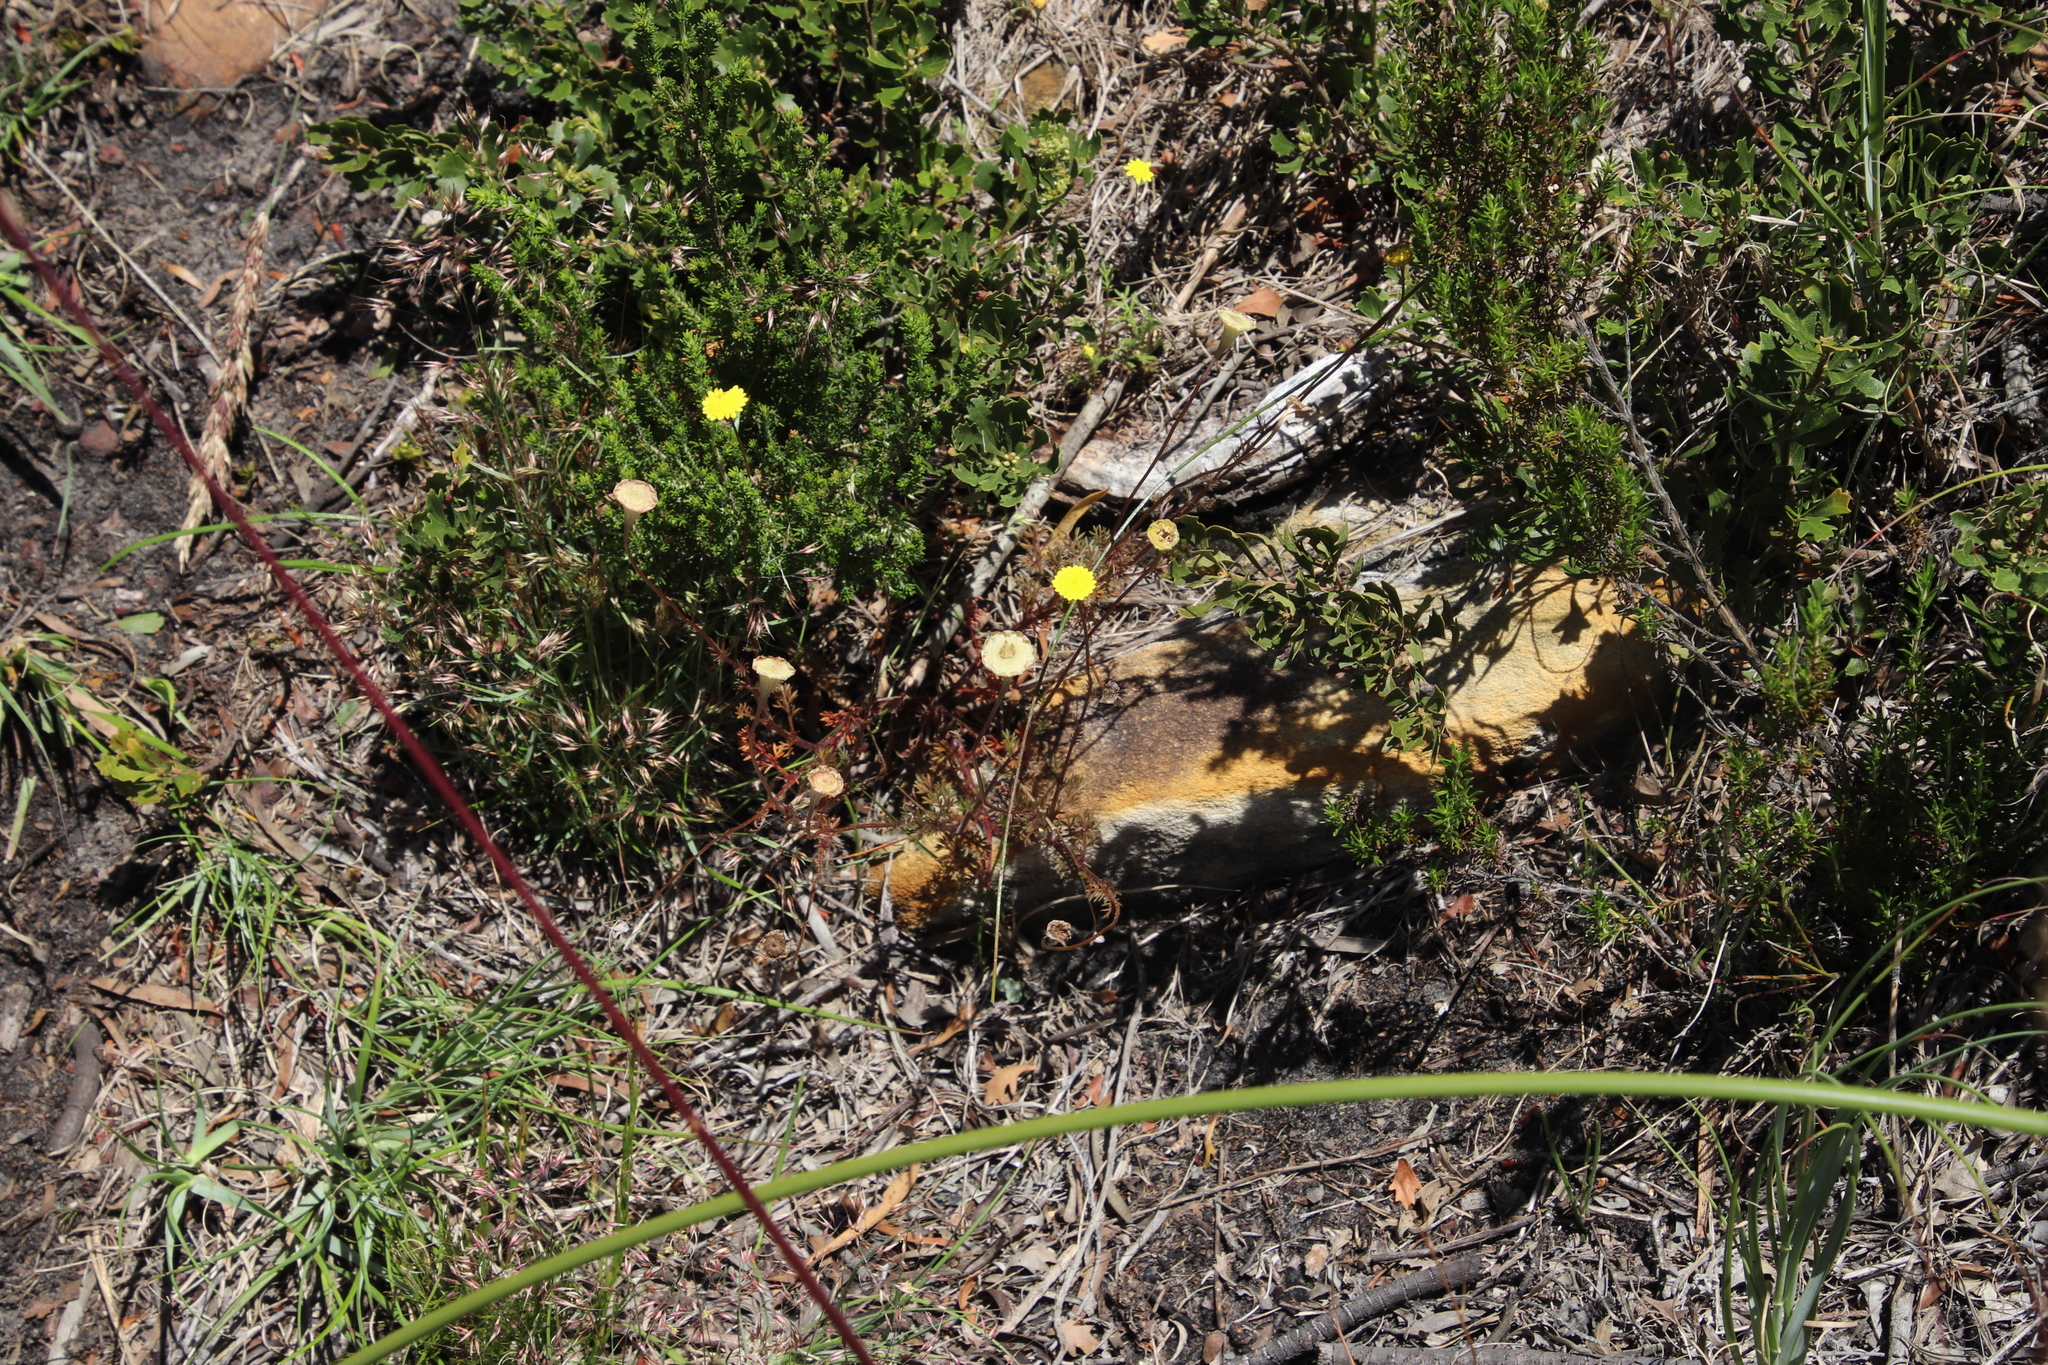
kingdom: Plantae
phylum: Tracheophyta
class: Magnoliopsida
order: Asterales
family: Asteraceae
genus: Cotula
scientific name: Cotula pruinosa
